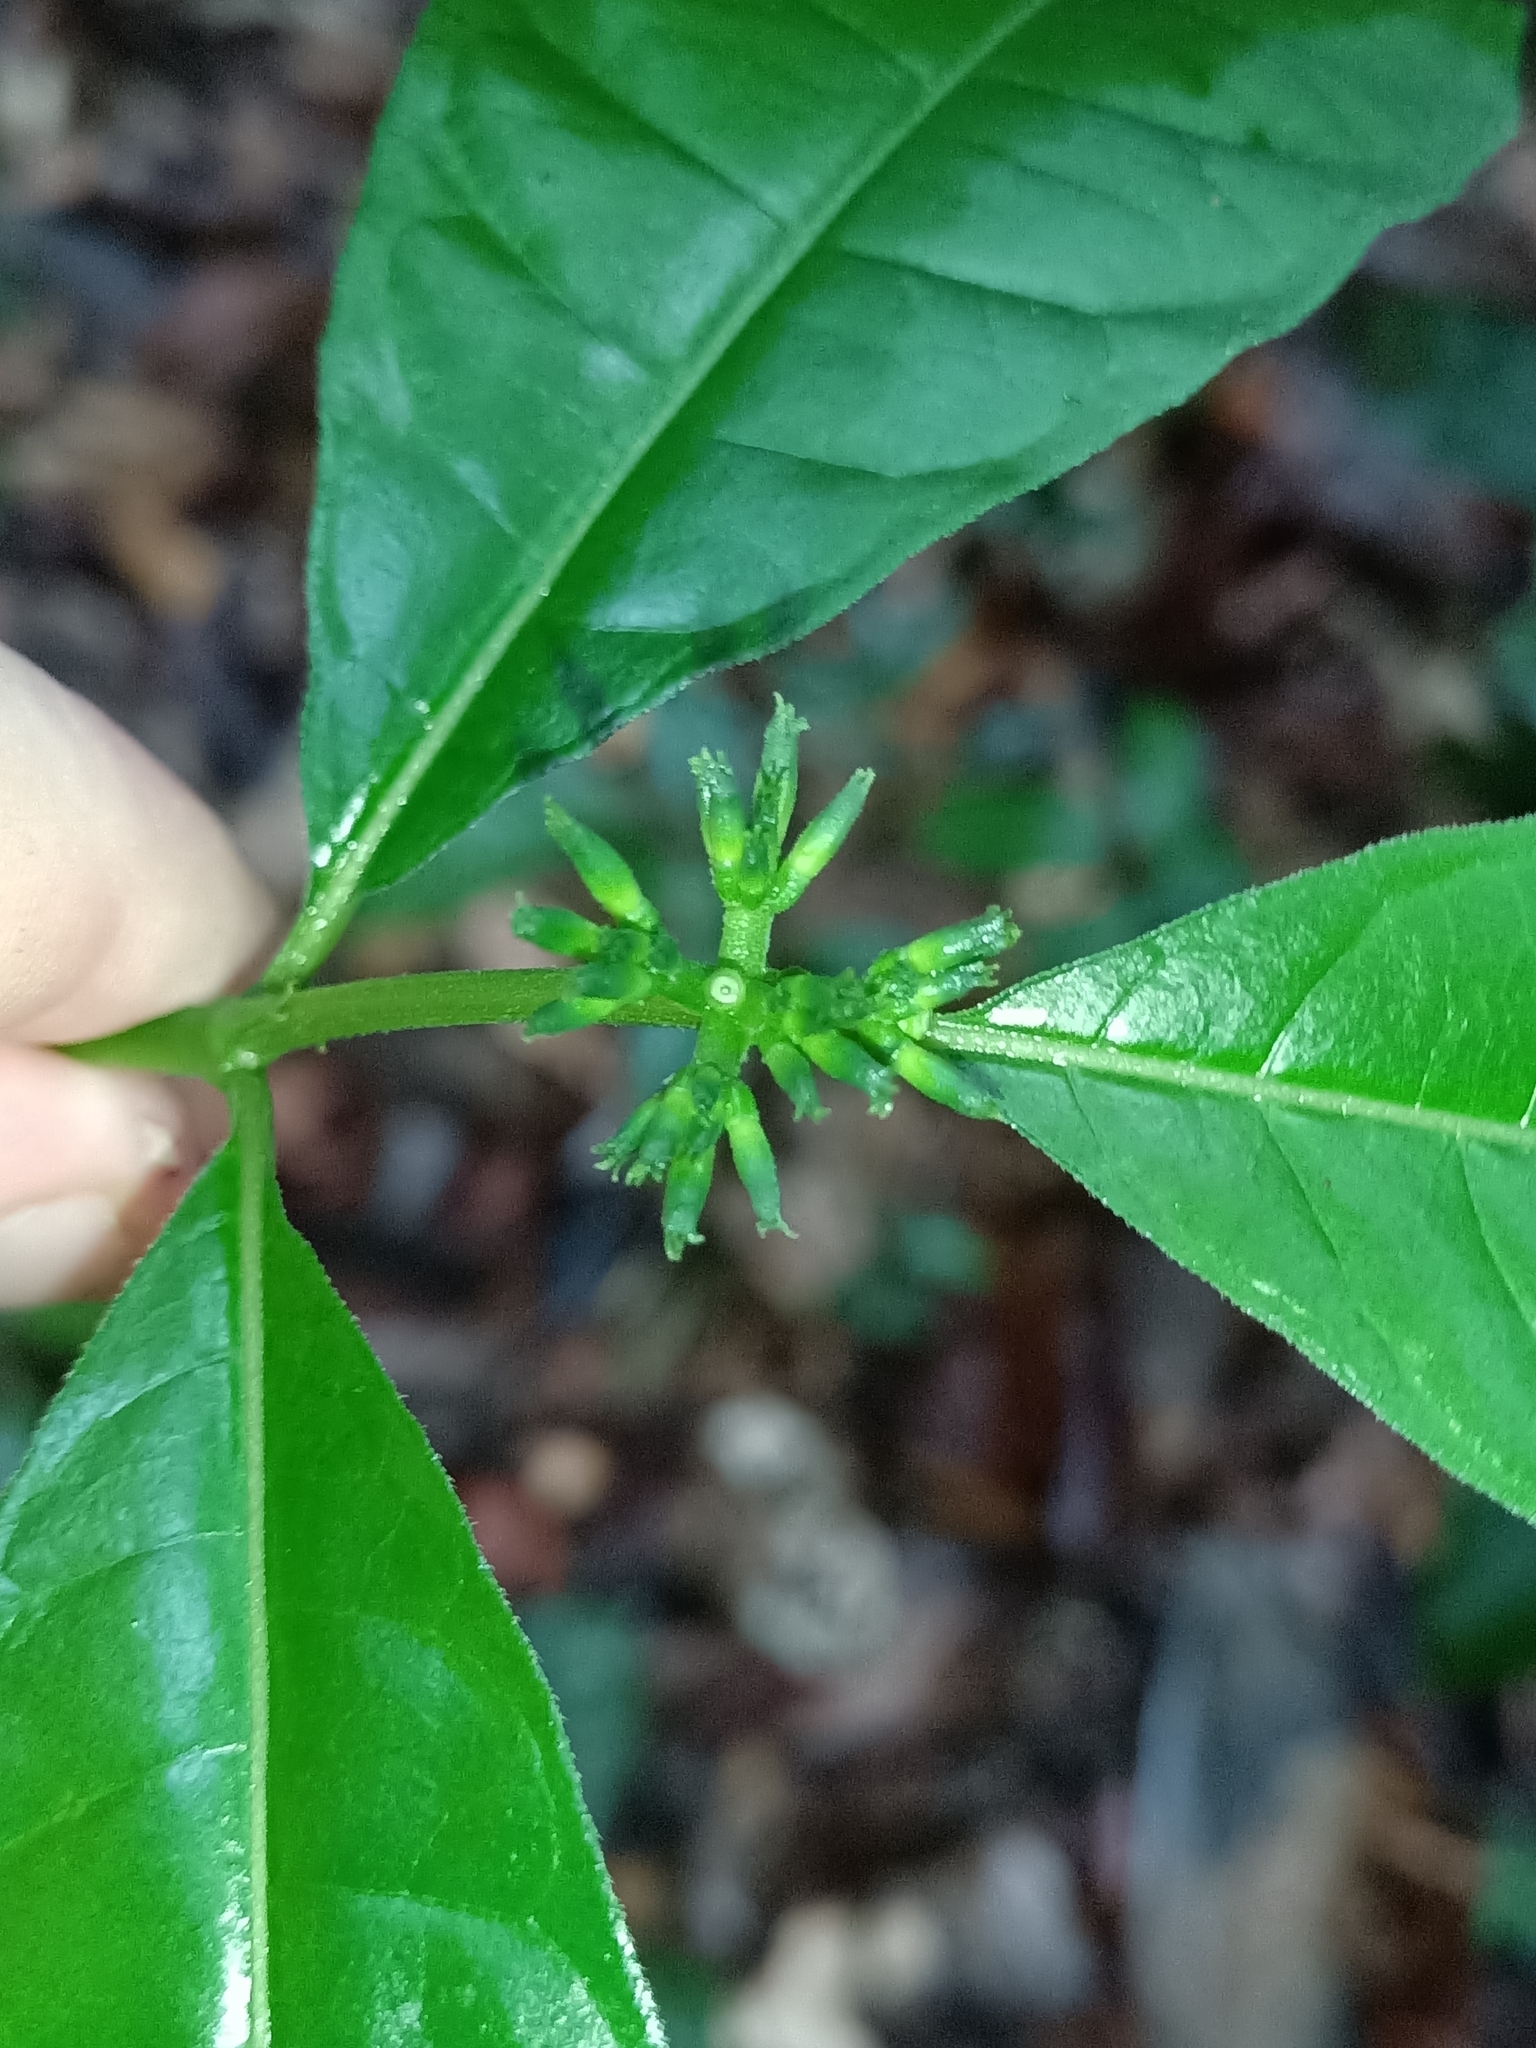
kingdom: Plantae
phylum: Tracheophyta
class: Magnoliopsida
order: Gentianales
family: Rubiaceae
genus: Appunia
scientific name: Appunia morindoides
